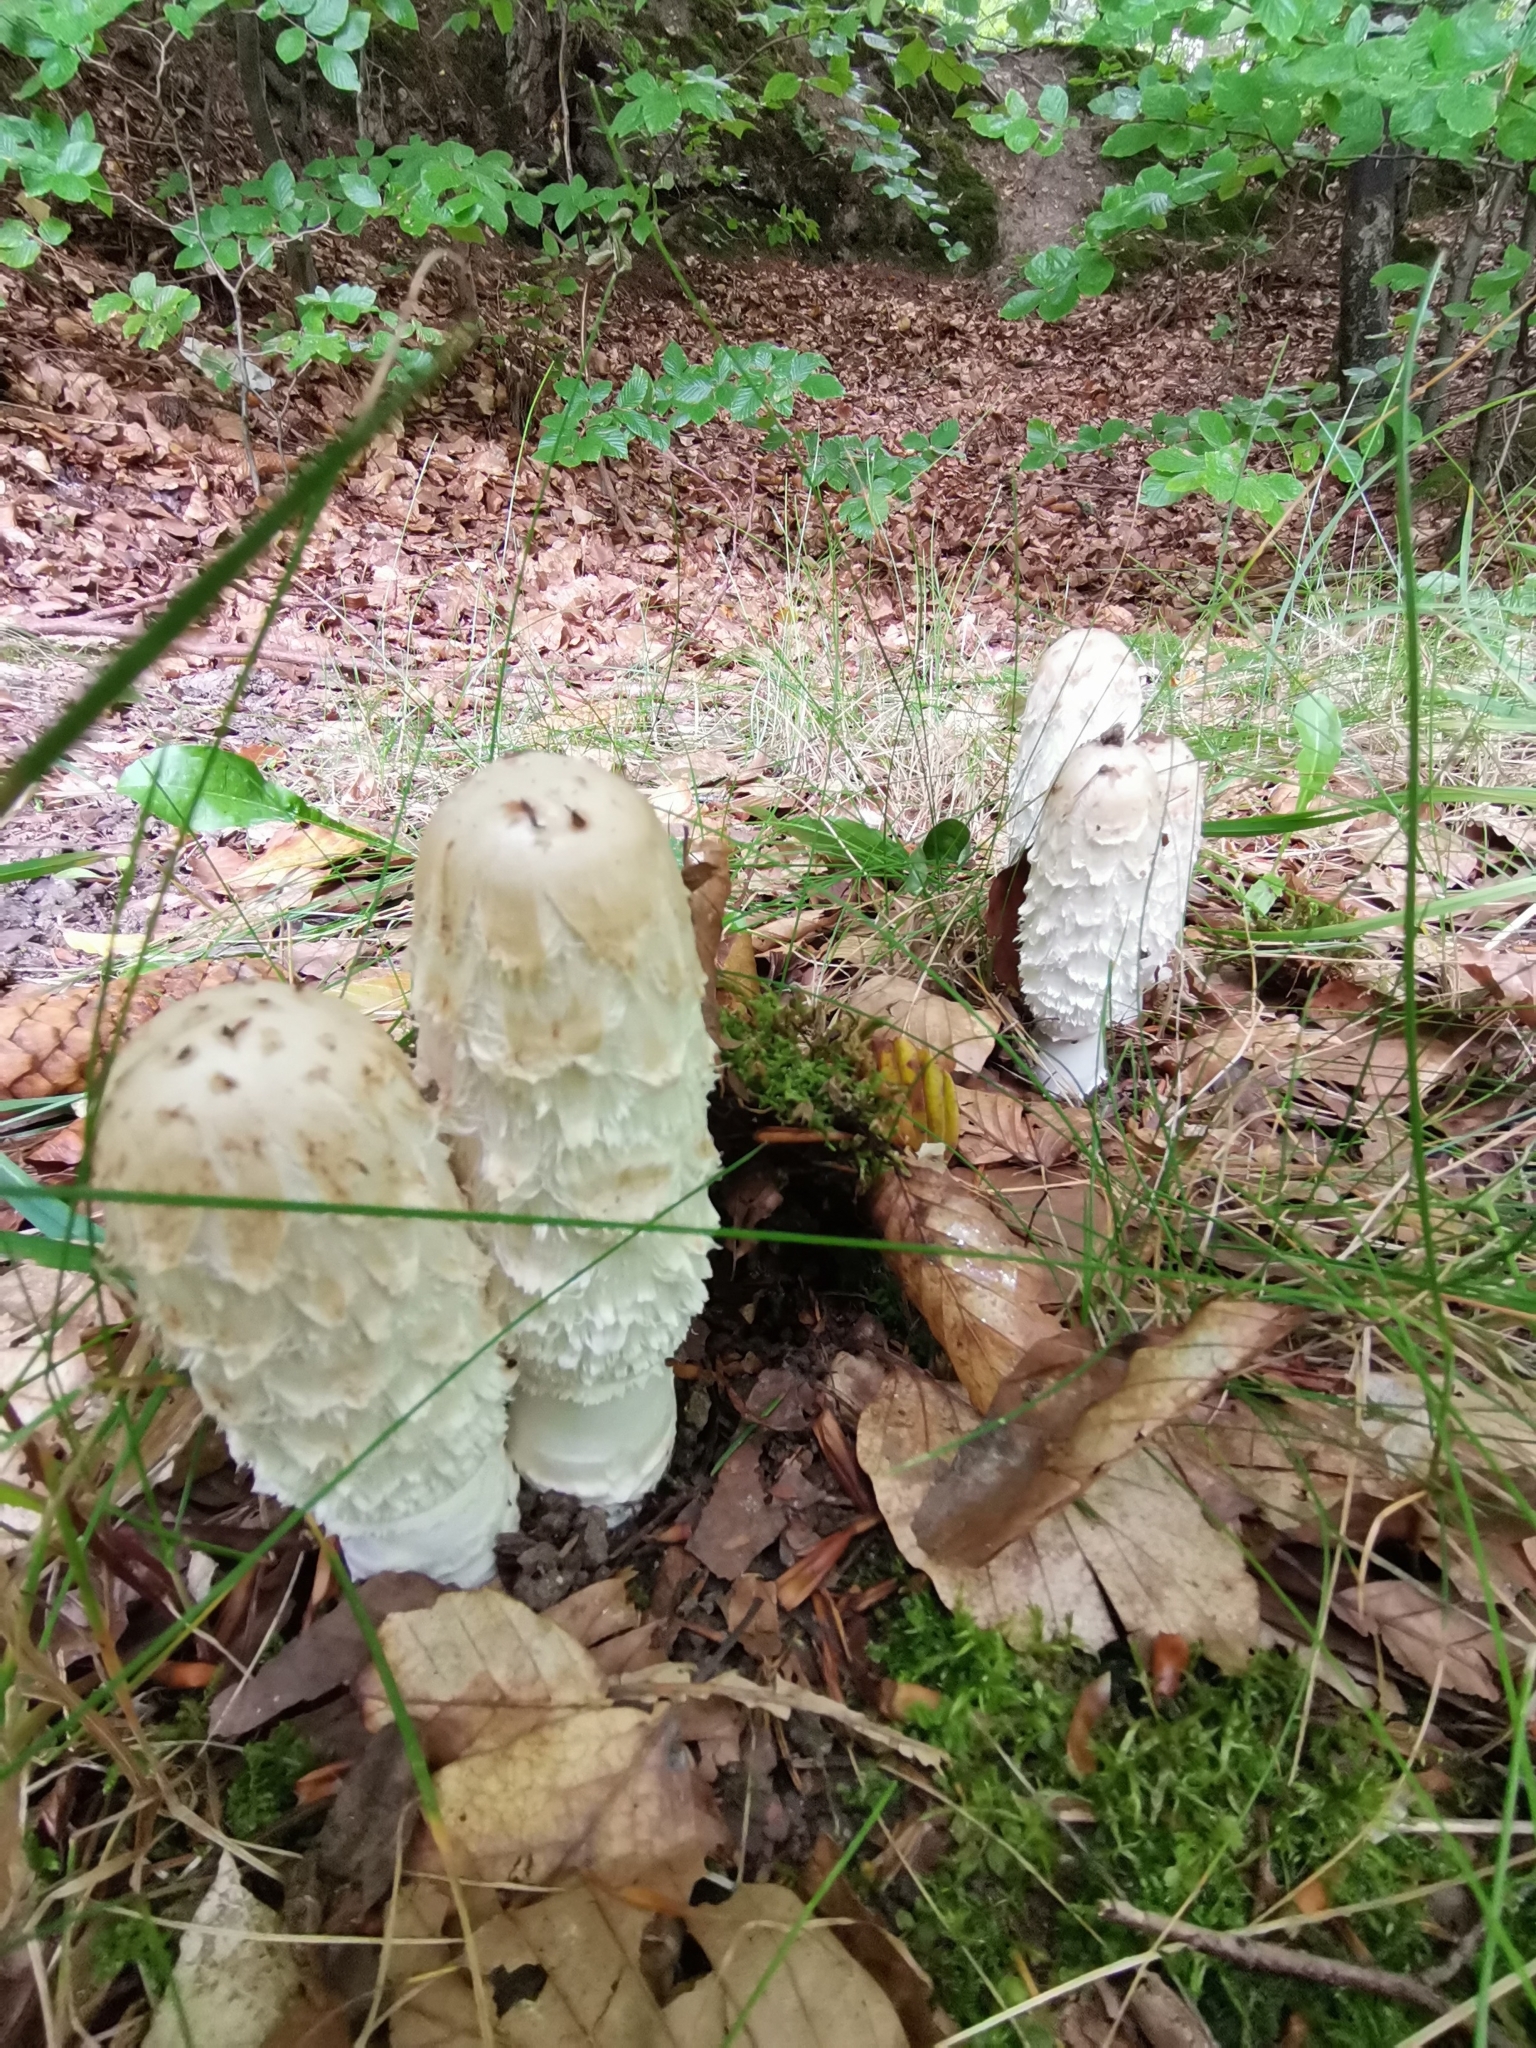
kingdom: Fungi
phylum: Basidiomycota
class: Agaricomycetes
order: Agaricales
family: Agaricaceae
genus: Coprinus
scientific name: Coprinus comatus
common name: Lawyer's wig
